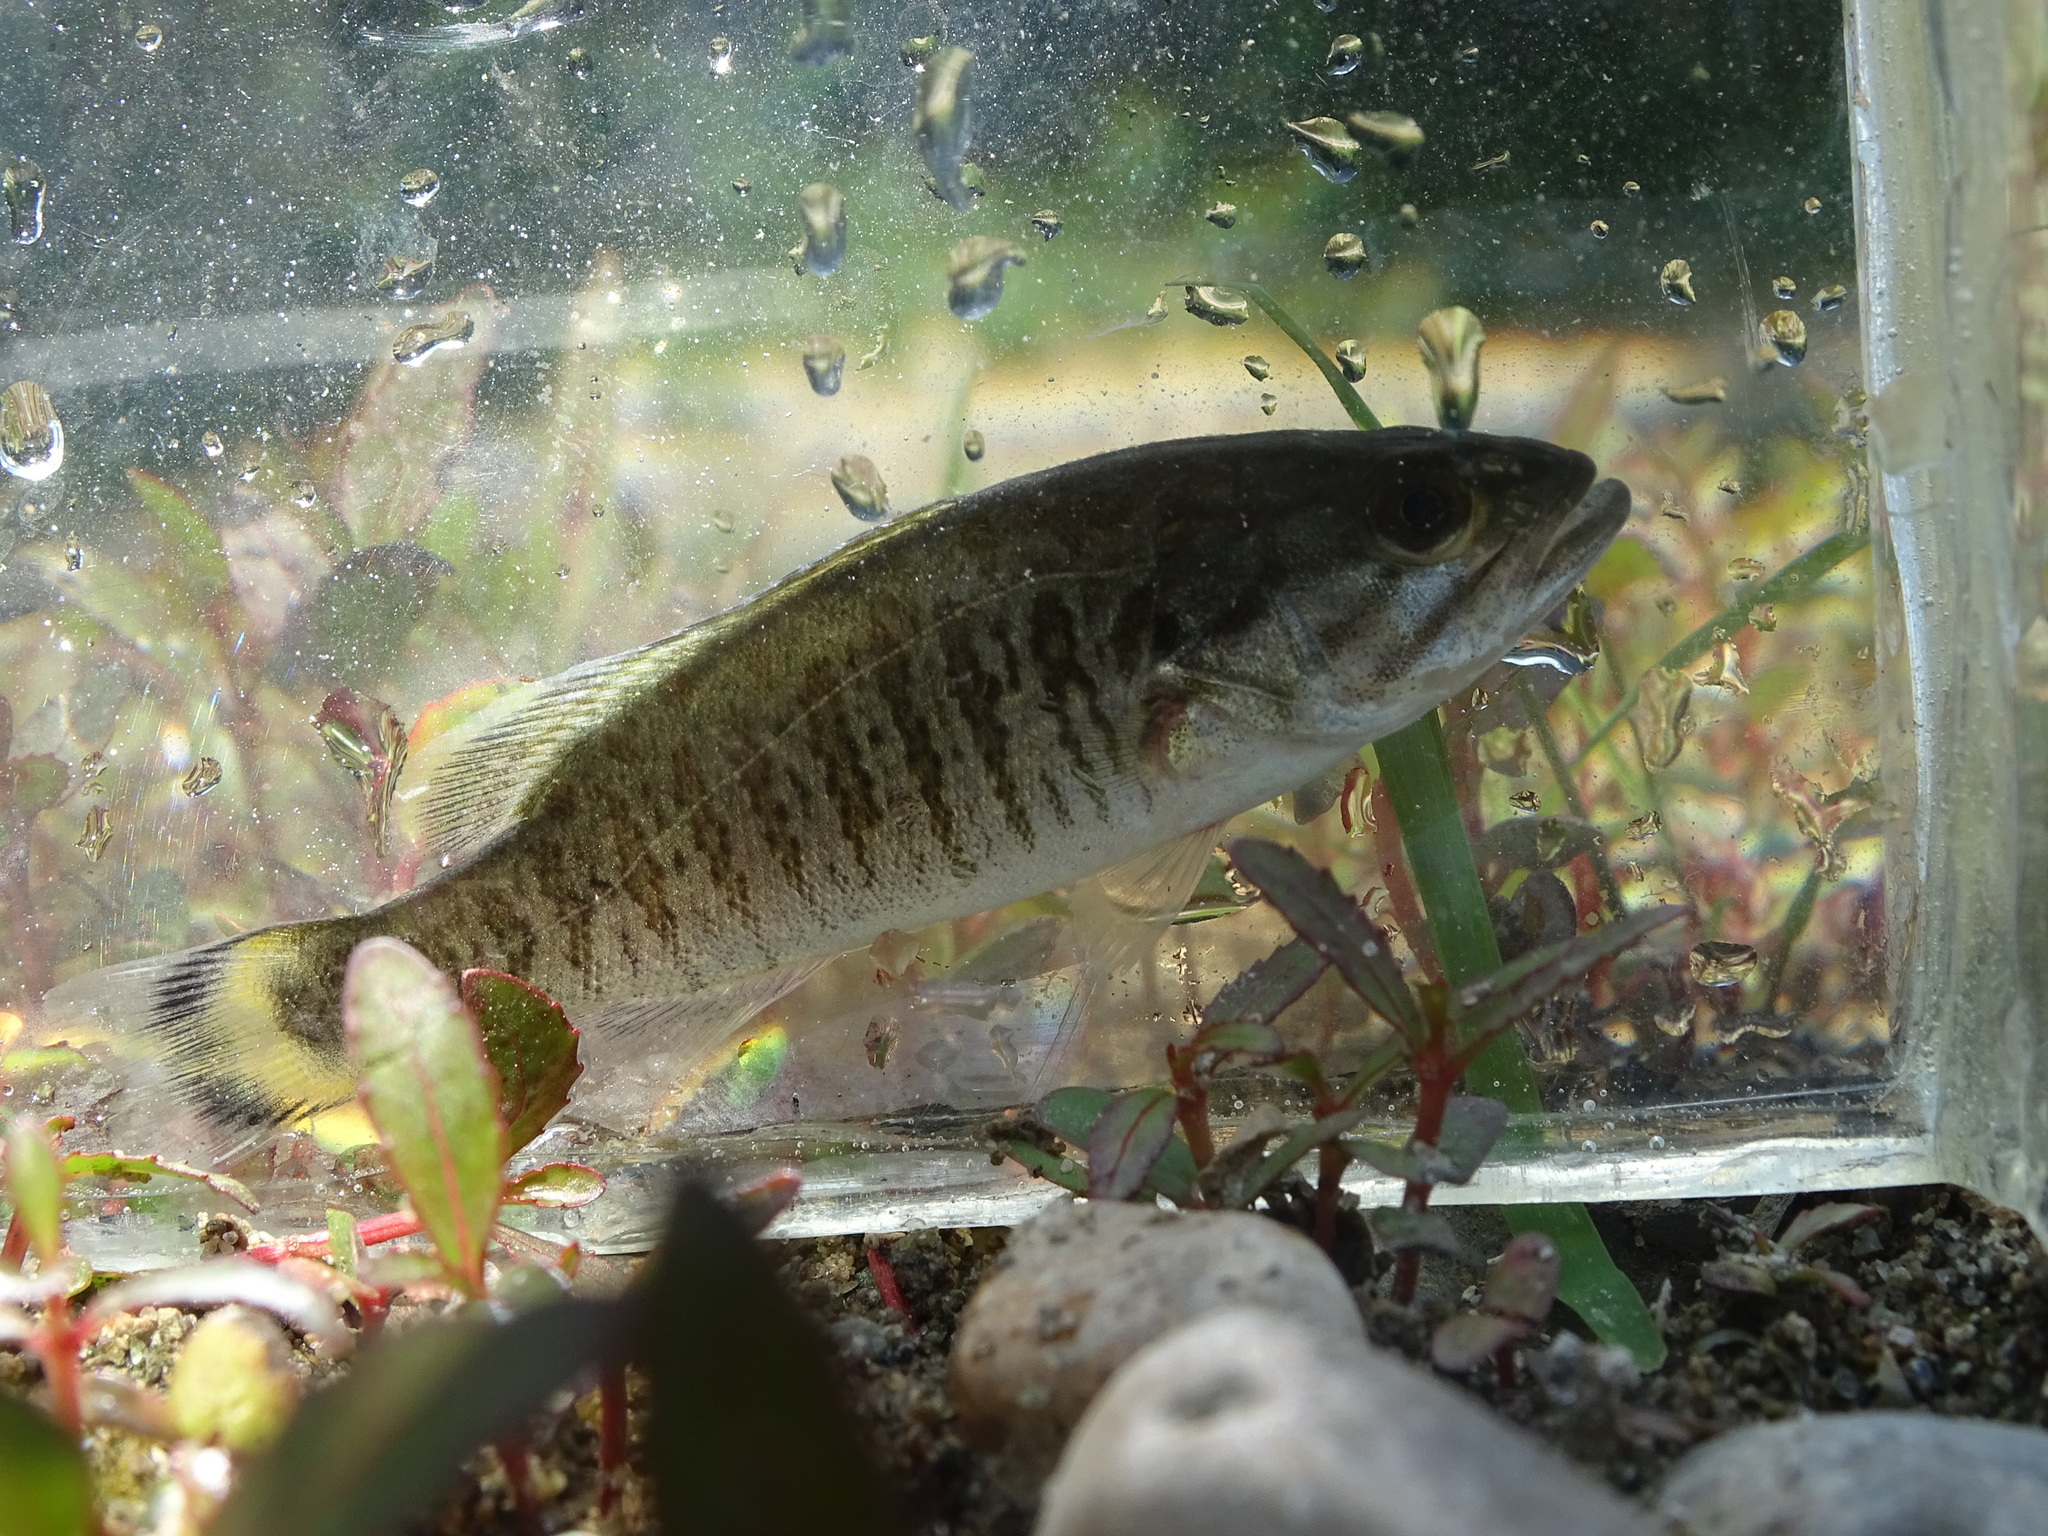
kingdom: Animalia
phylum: Chordata
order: Perciformes
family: Centrarchidae
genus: Micropterus
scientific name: Micropterus dolomieu
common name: Smallmouth bass
